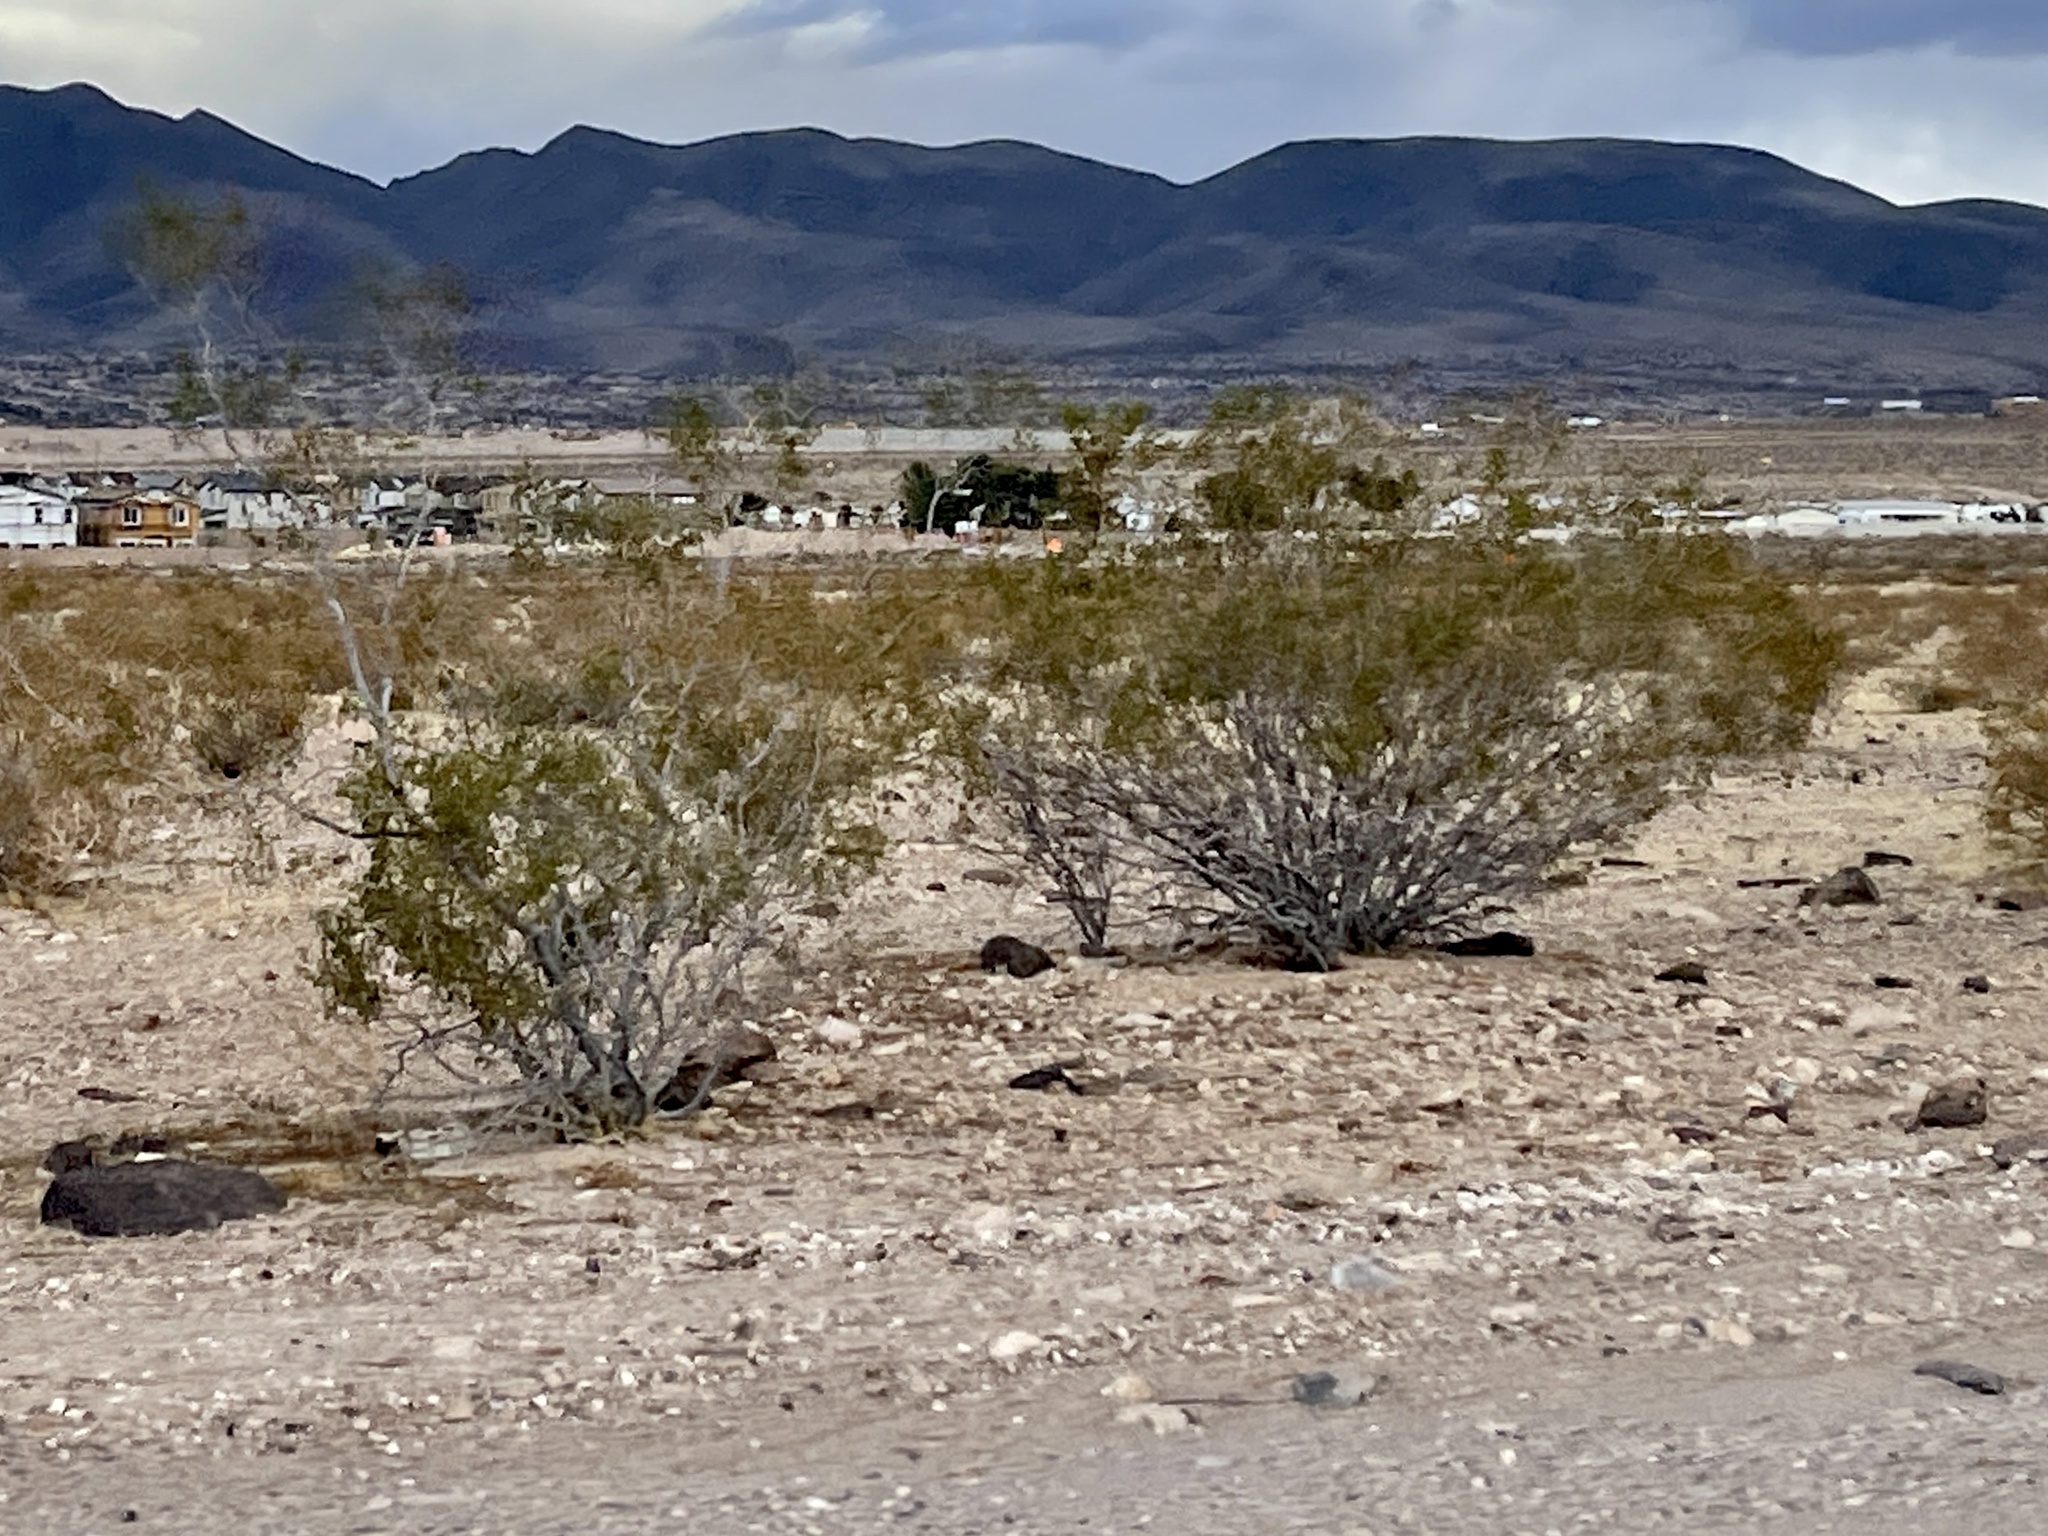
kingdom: Plantae
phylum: Tracheophyta
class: Magnoliopsida
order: Zygophyllales
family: Zygophyllaceae
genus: Larrea
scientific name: Larrea tridentata
